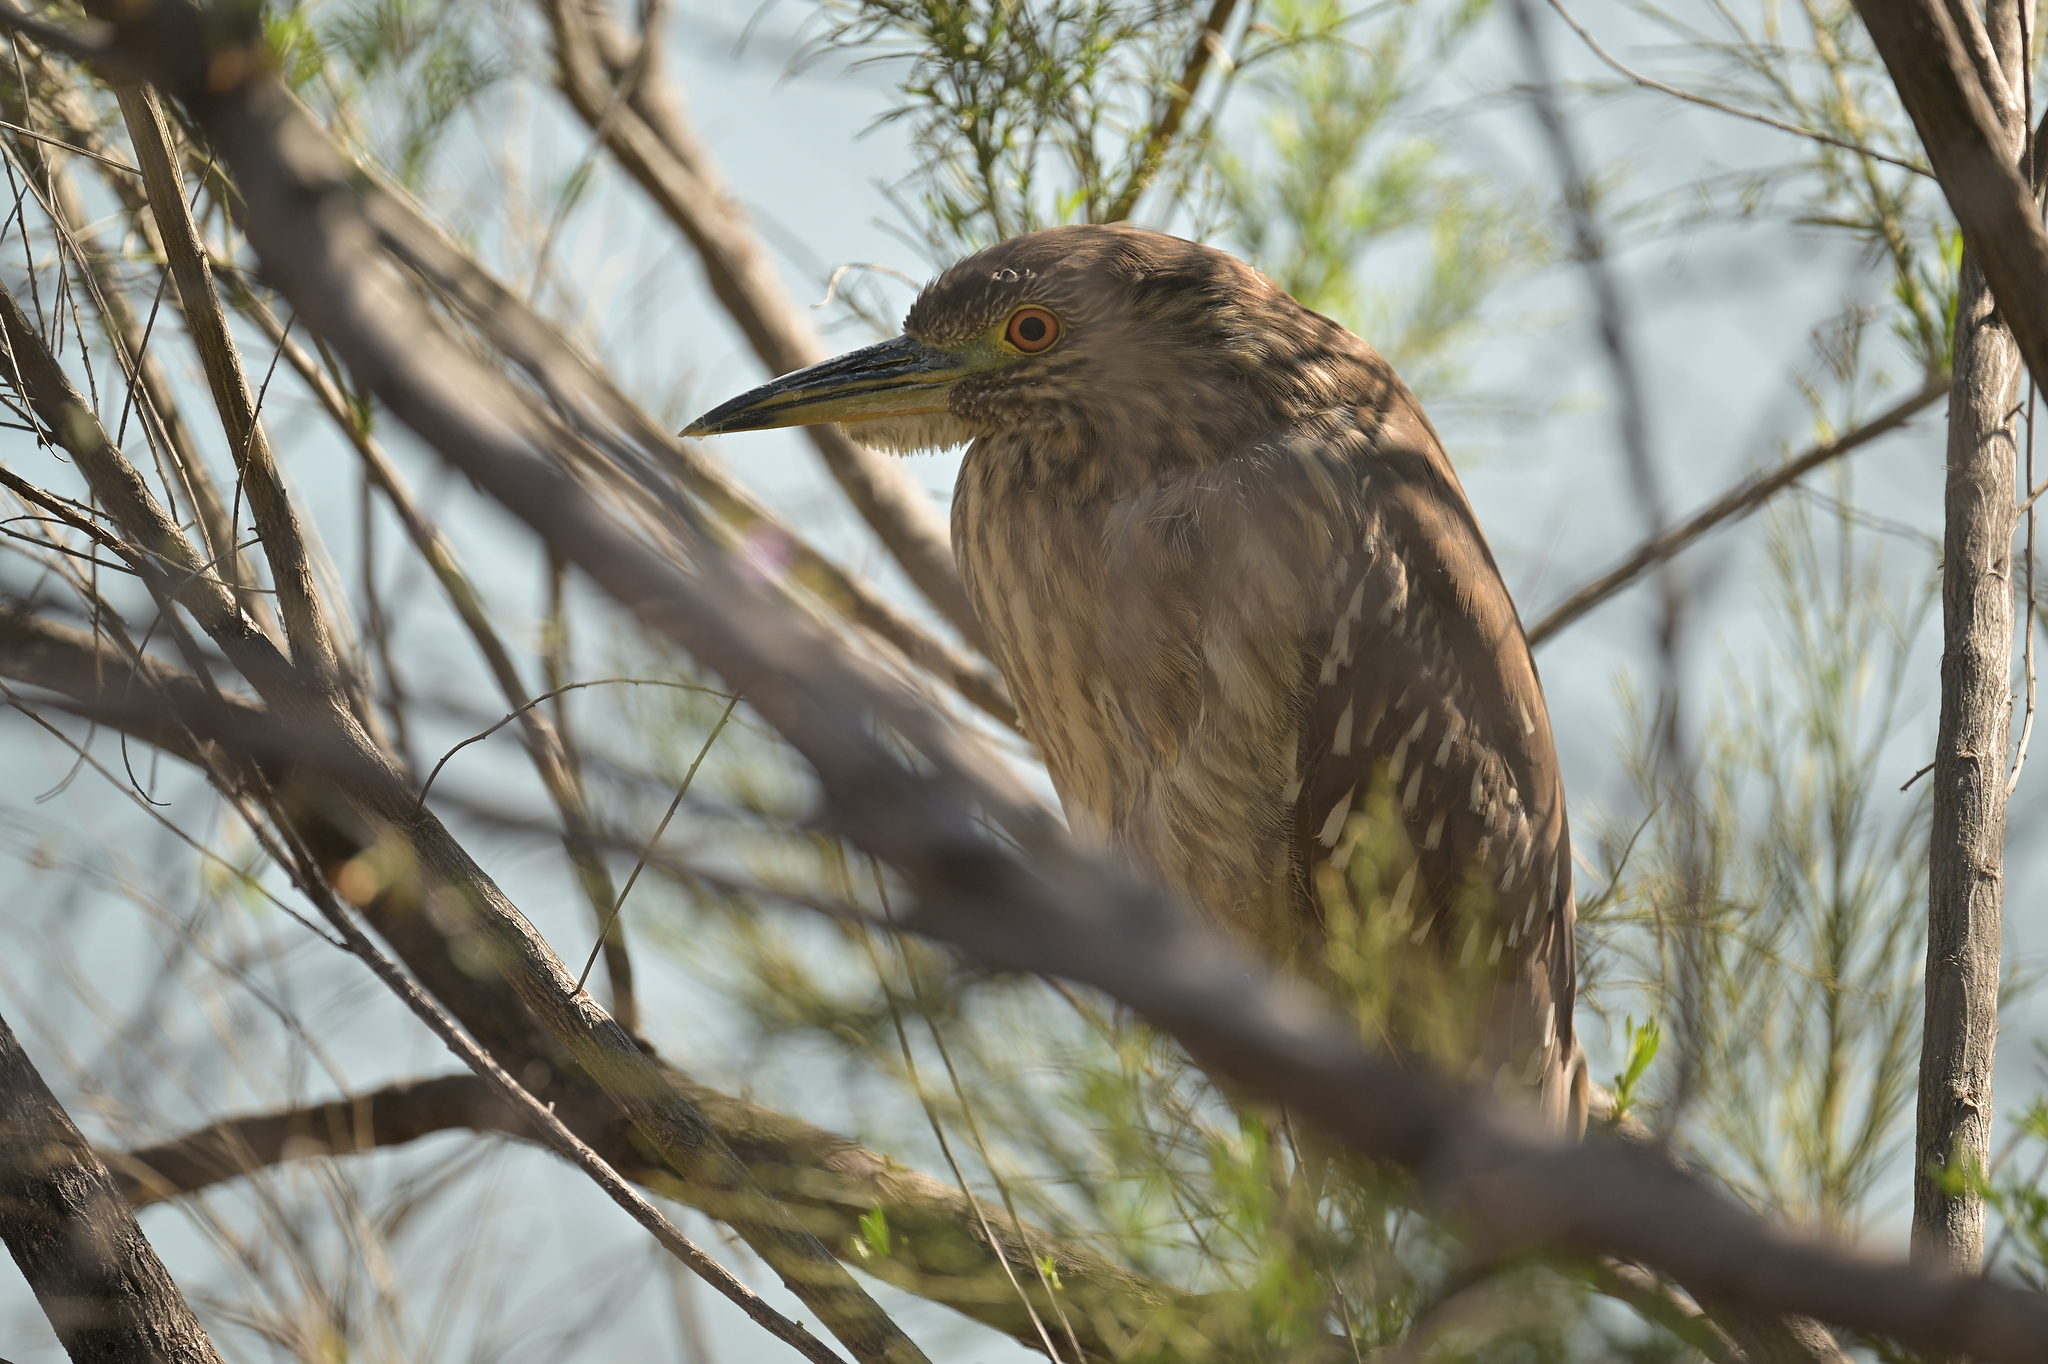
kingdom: Animalia
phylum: Chordata
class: Aves
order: Pelecaniformes
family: Ardeidae
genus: Nycticorax
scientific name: Nycticorax nycticorax
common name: Black-crowned night heron
